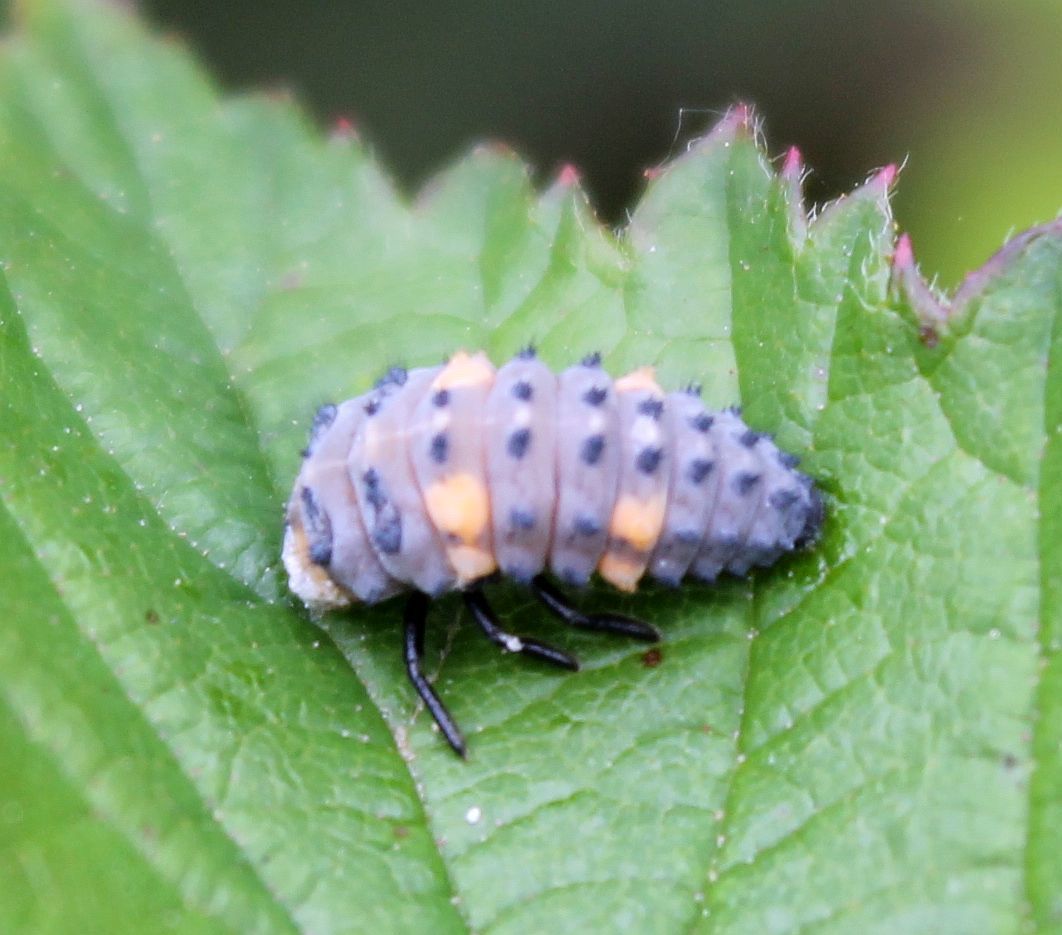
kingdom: Animalia
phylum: Arthropoda
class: Insecta
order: Coleoptera
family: Coccinellidae
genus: Coccinella
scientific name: Coccinella septempunctata
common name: Sevenspotted lady beetle
